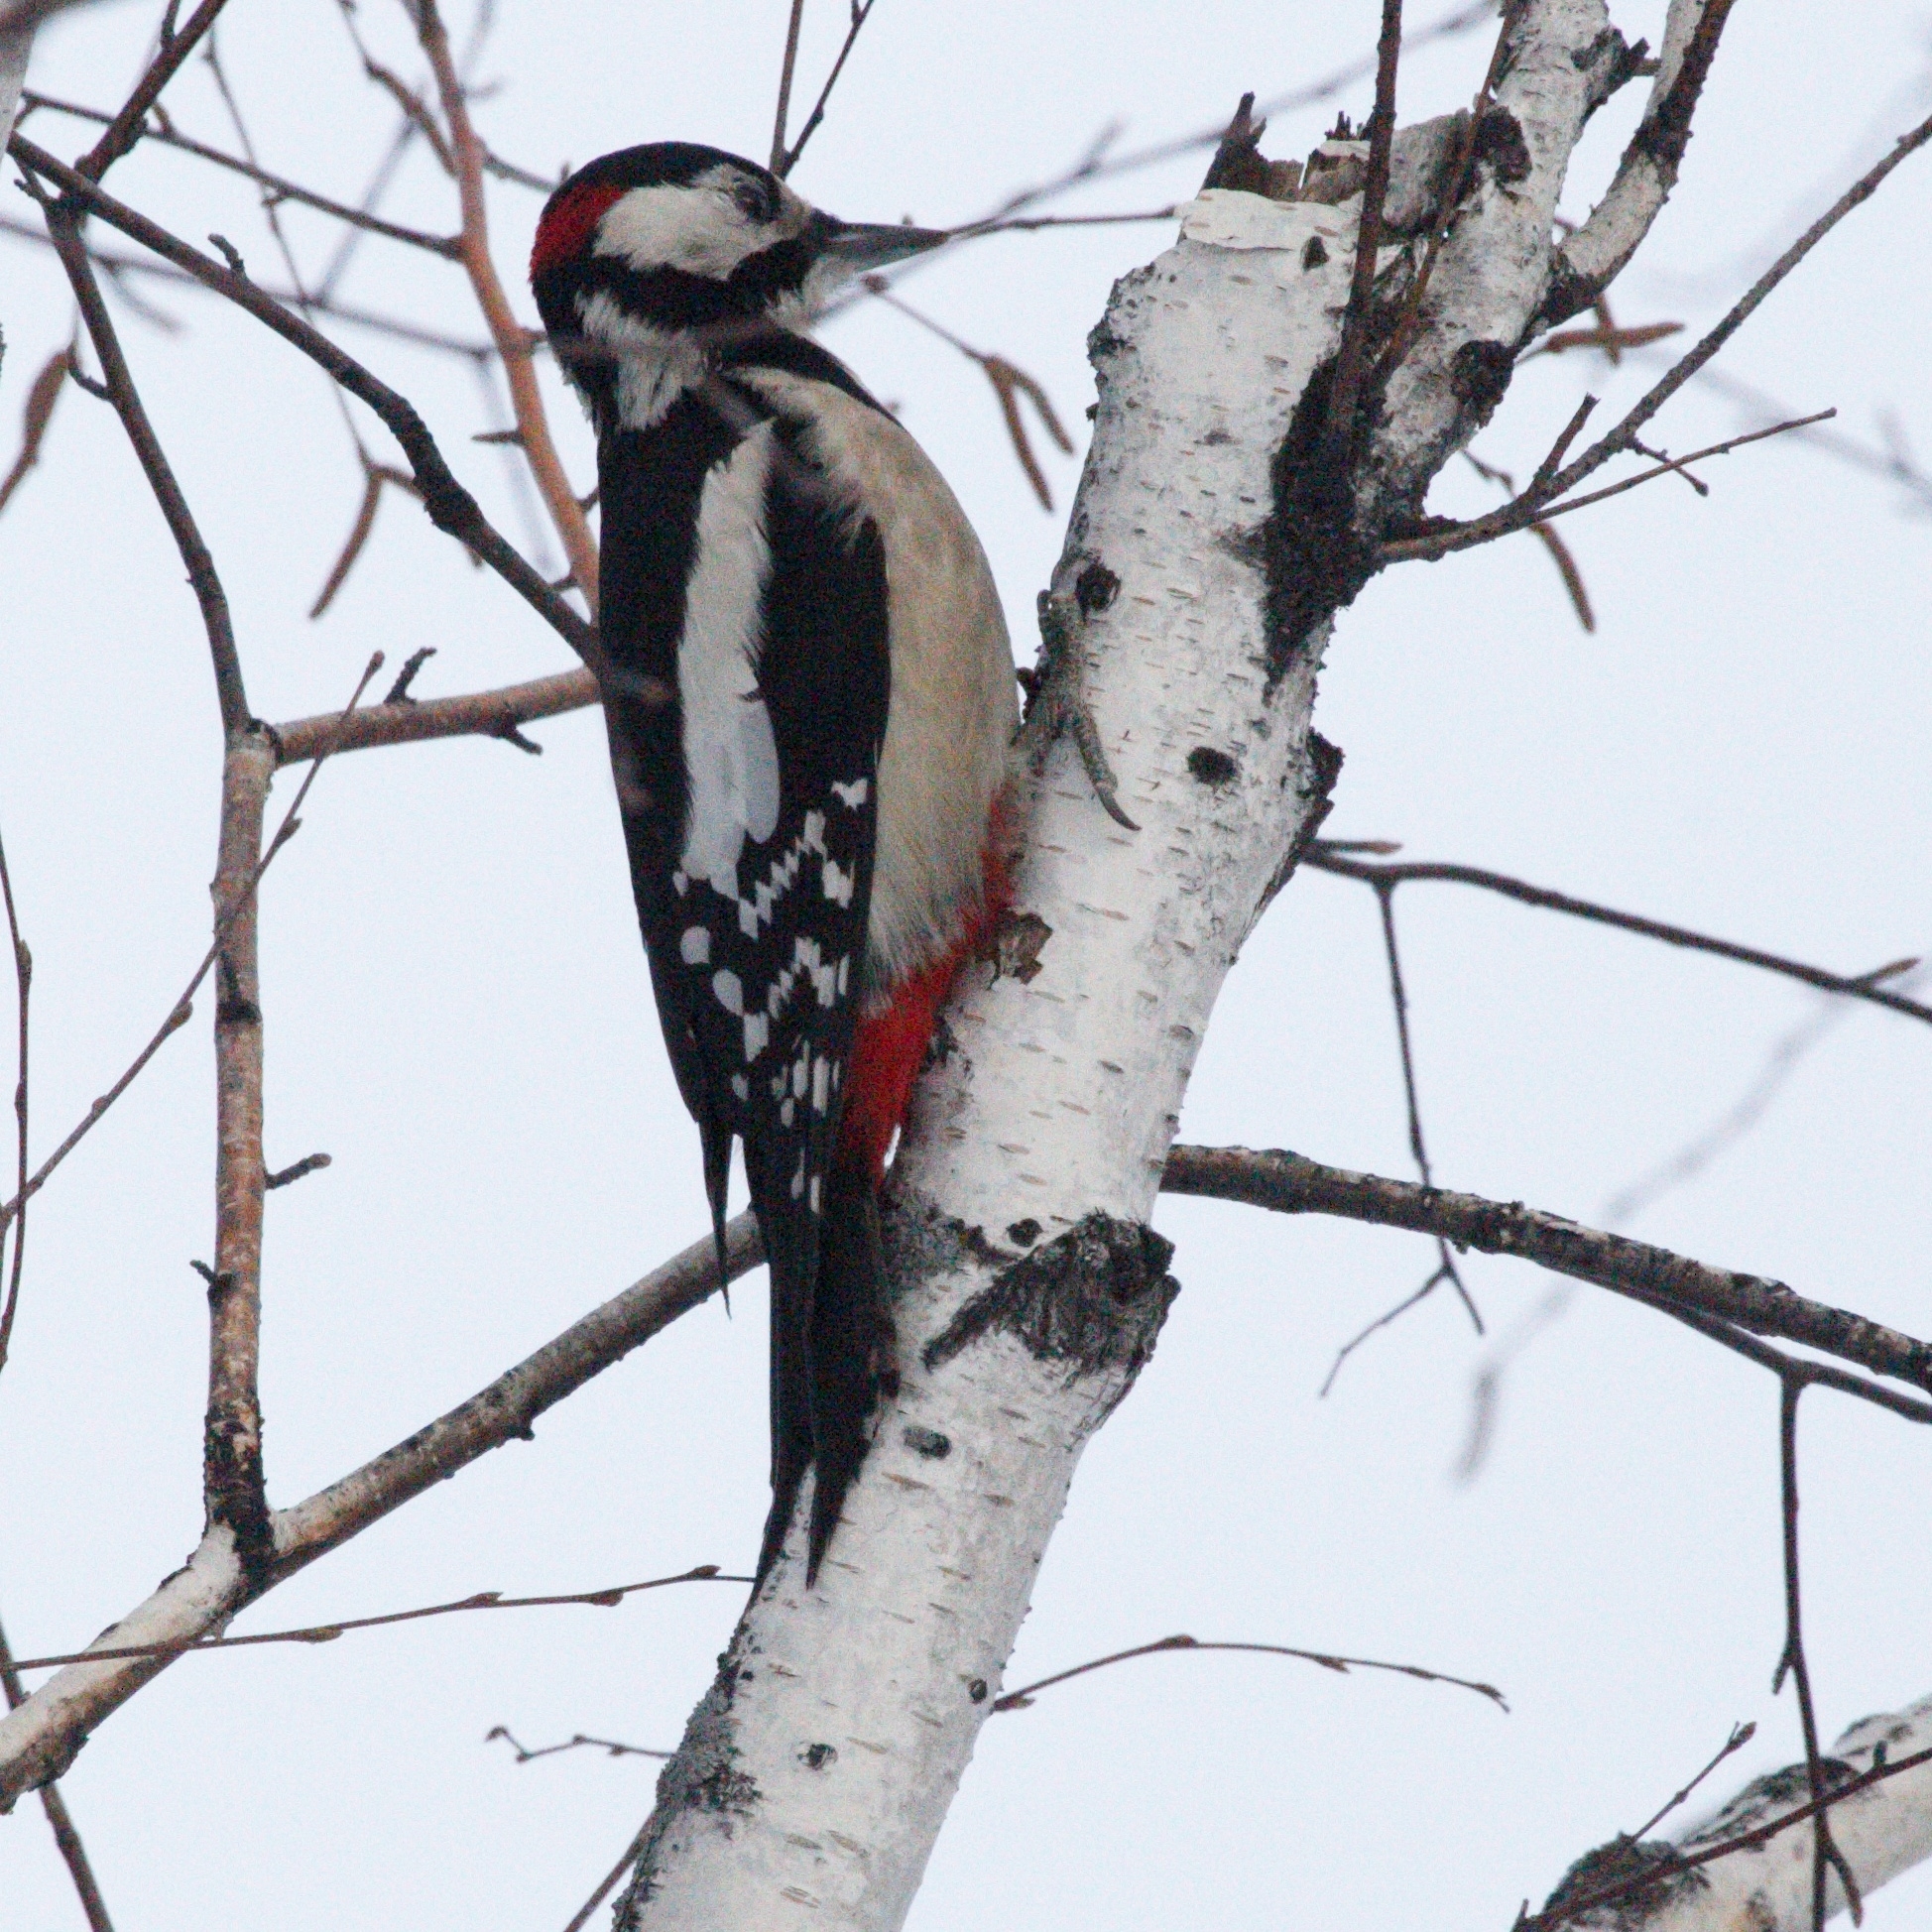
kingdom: Animalia
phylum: Chordata
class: Aves
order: Piciformes
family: Picidae
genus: Dendrocopos
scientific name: Dendrocopos major
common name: Great spotted woodpecker
